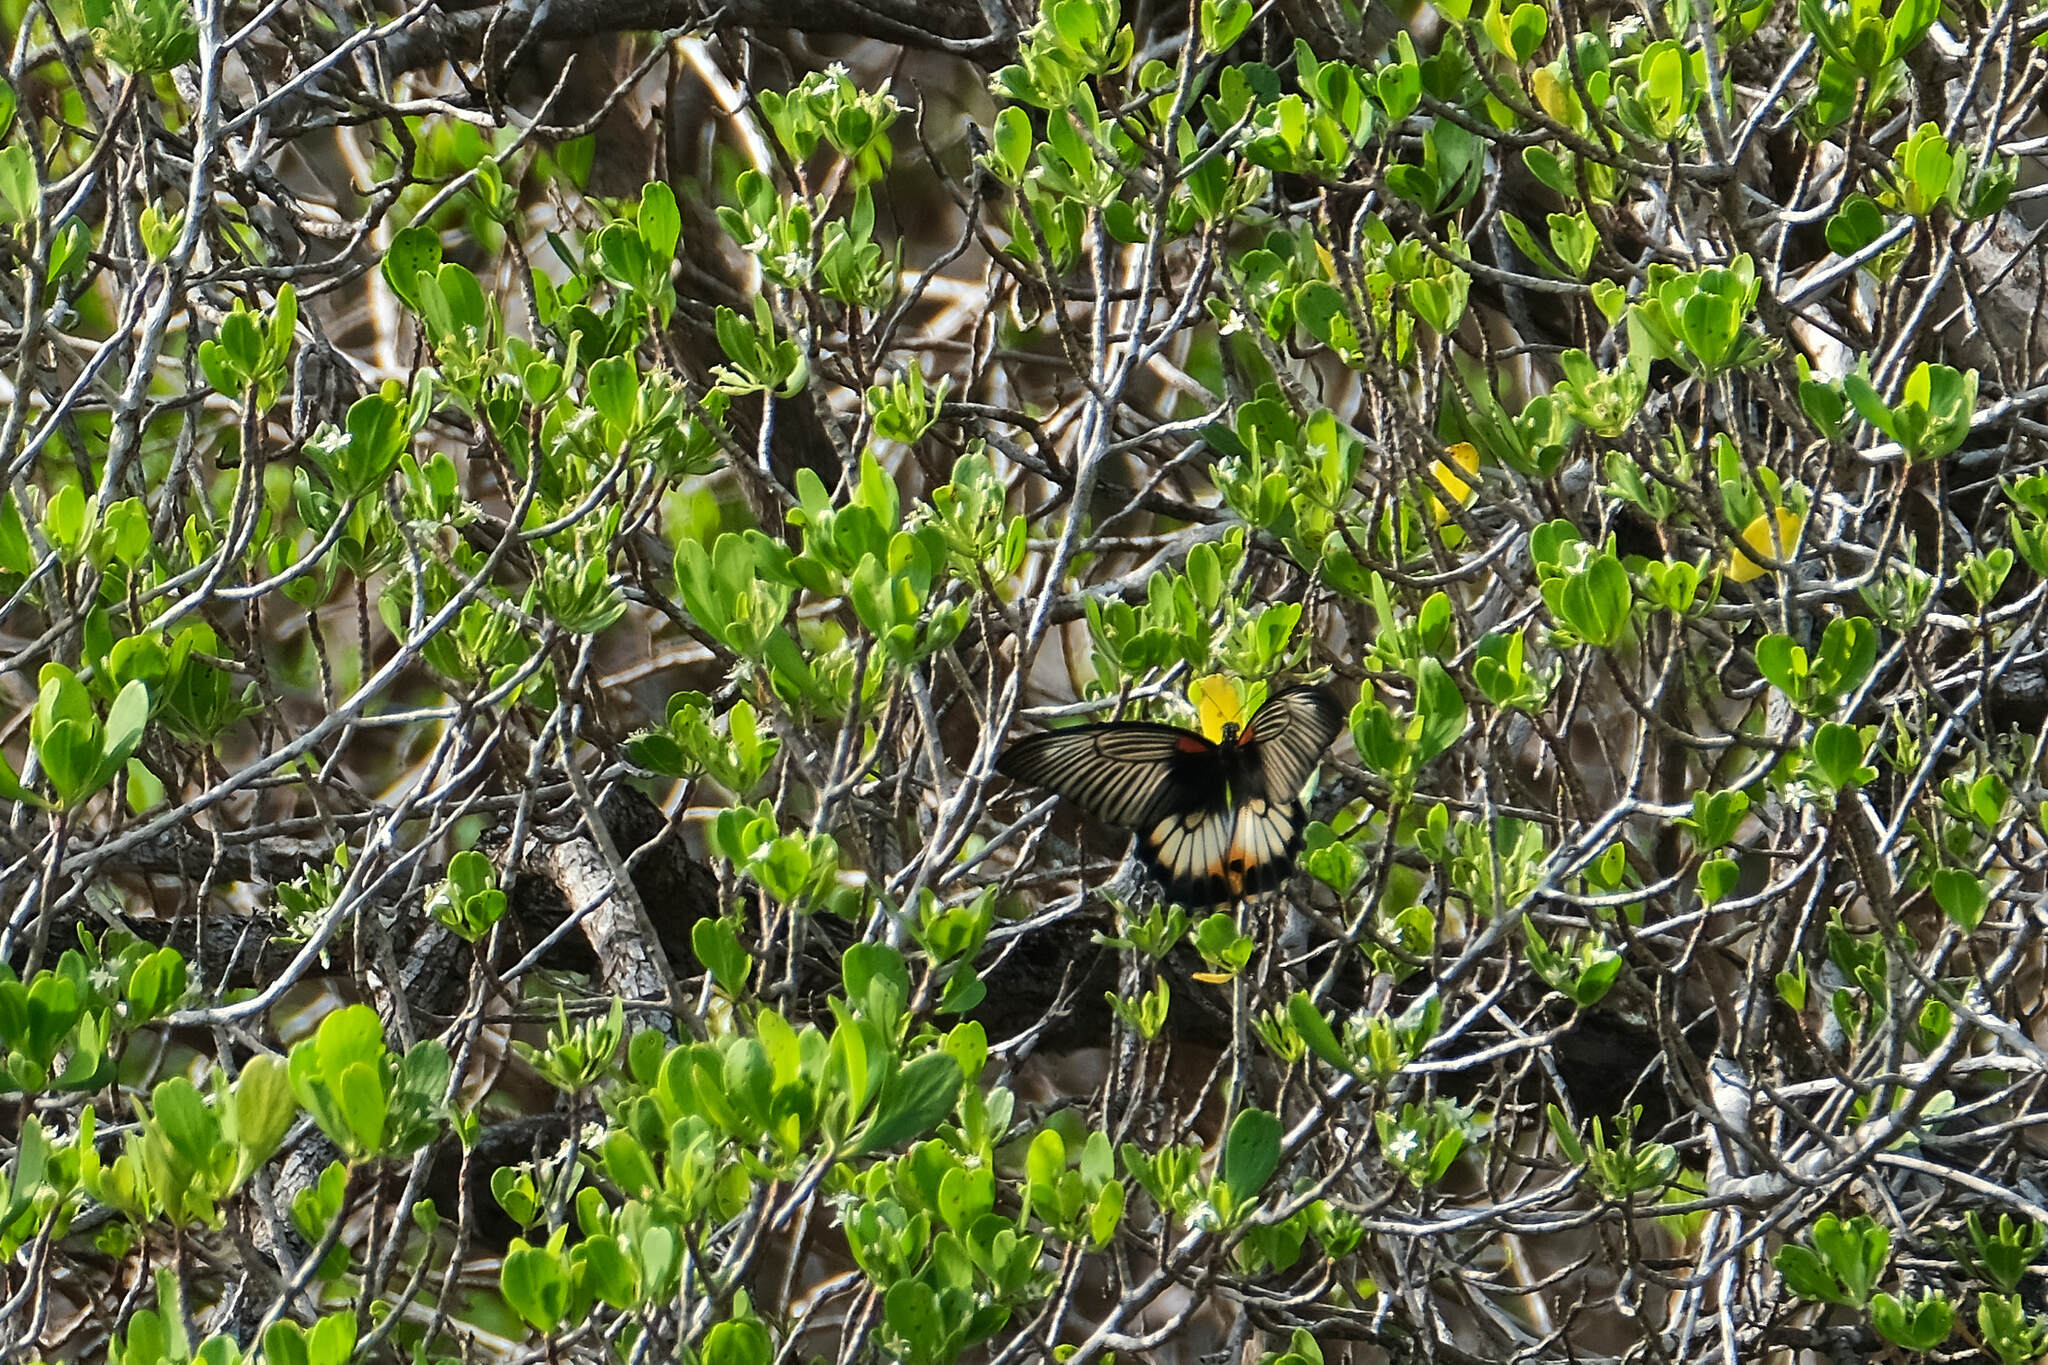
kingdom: Animalia
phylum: Arthropoda
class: Insecta
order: Lepidoptera
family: Papilionidae
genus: Papilio
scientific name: Papilio memnon
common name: Great mormon
